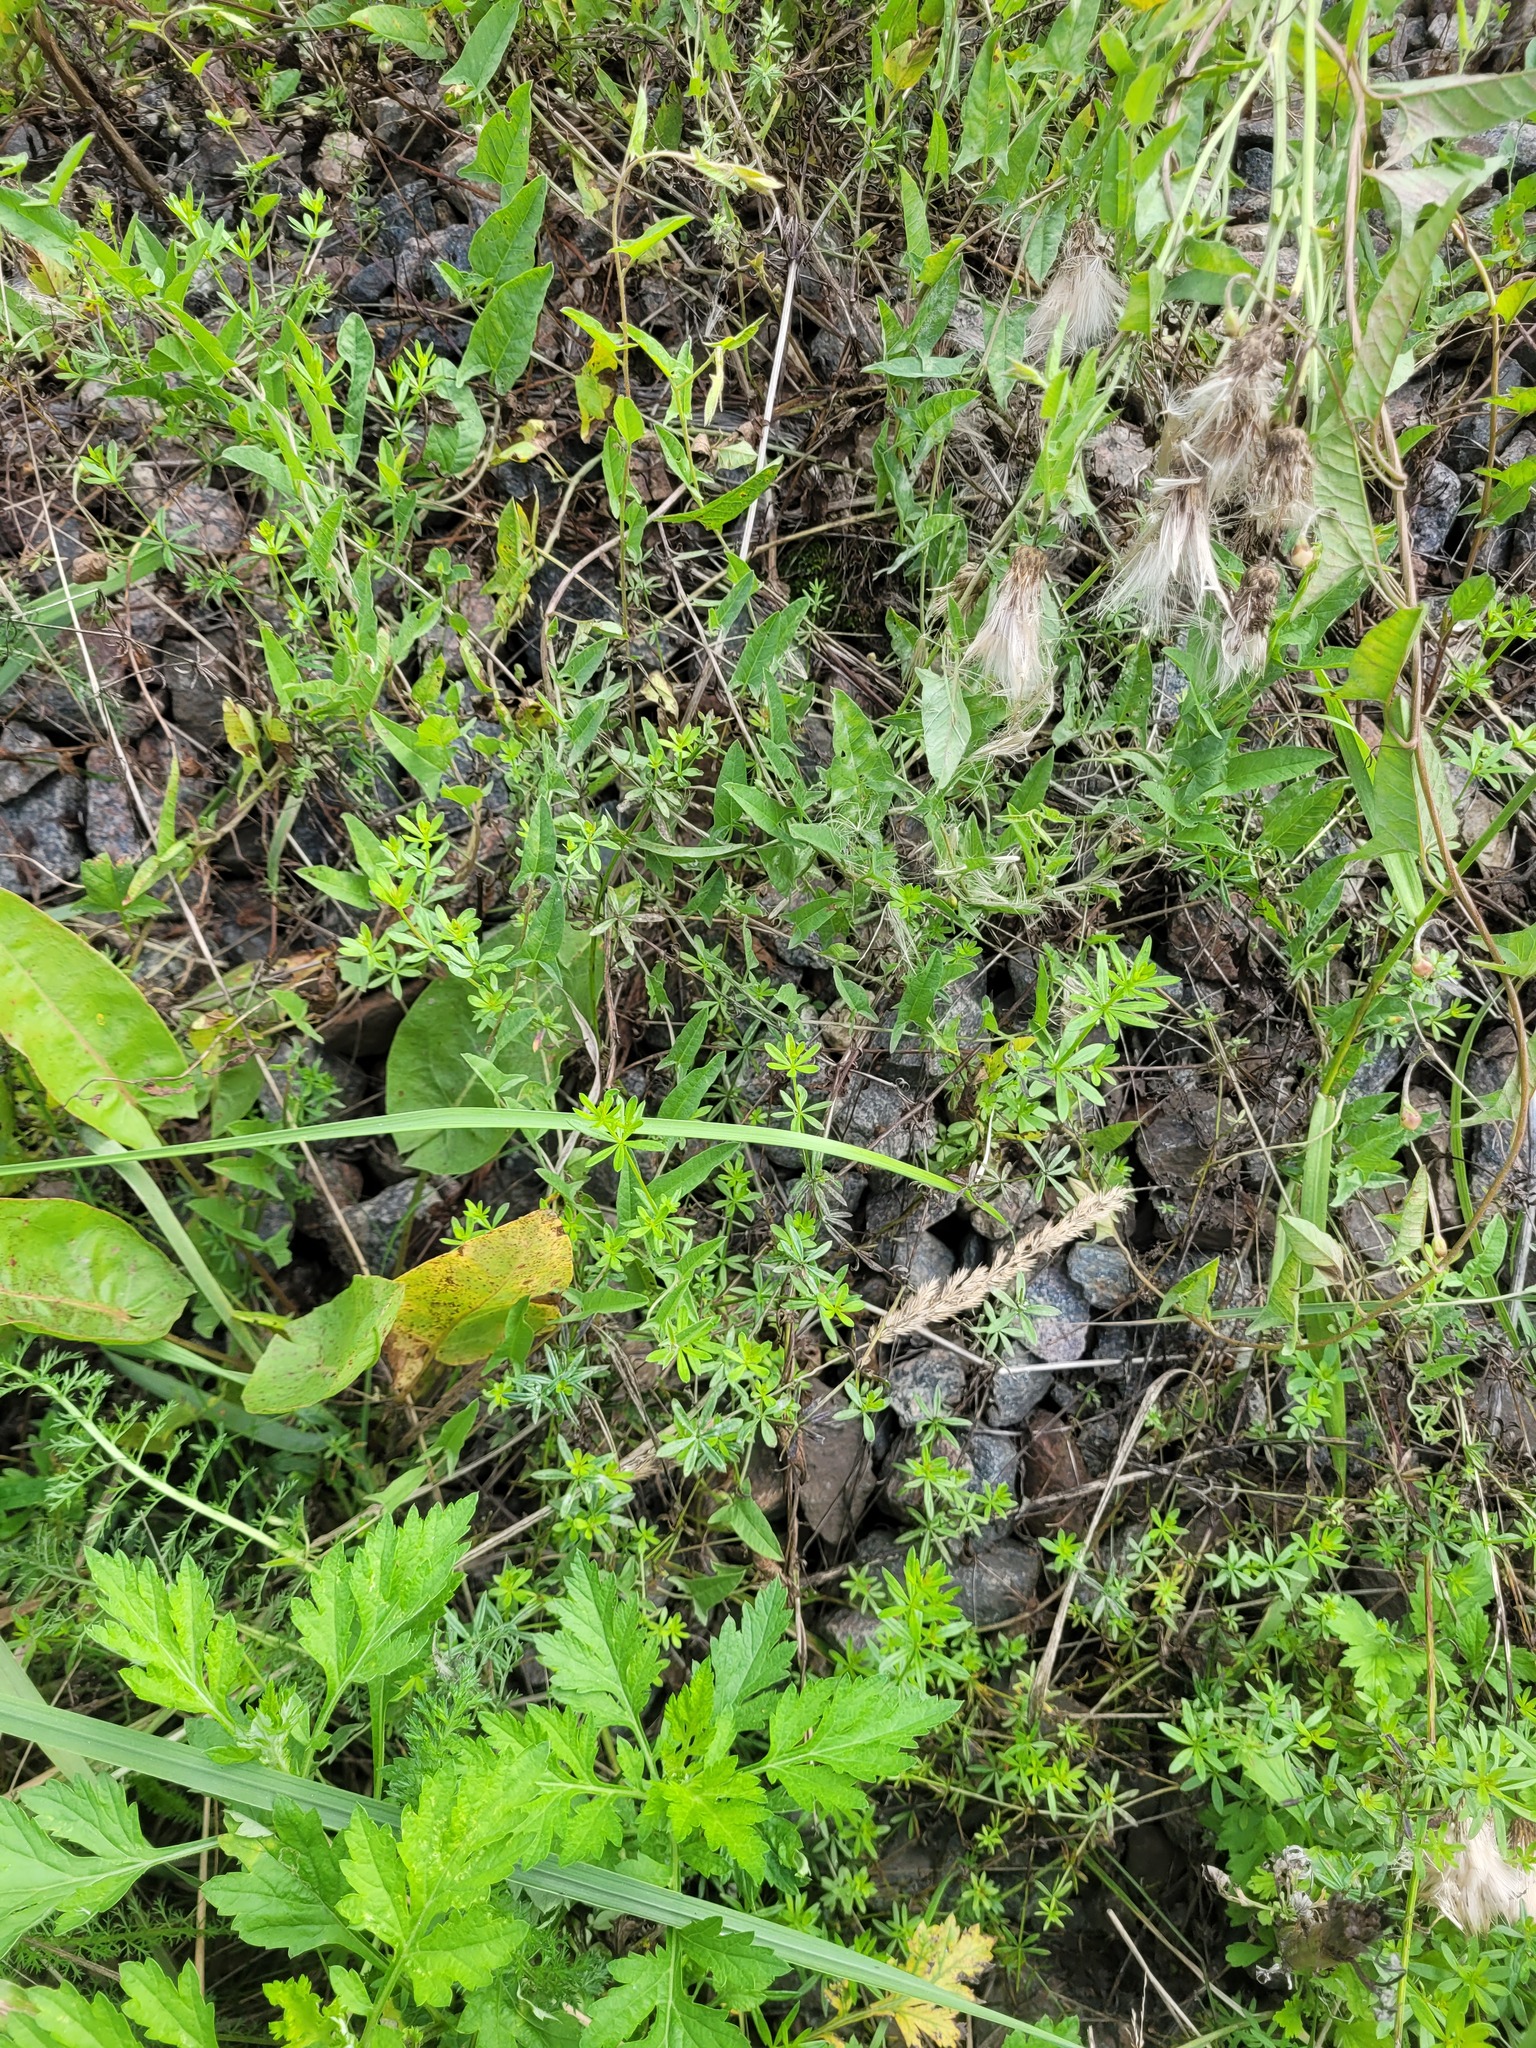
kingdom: Plantae
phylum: Tracheophyta
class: Magnoliopsida
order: Gentianales
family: Rubiaceae
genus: Galium
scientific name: Galium mollugo
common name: Hedge bedstraw
